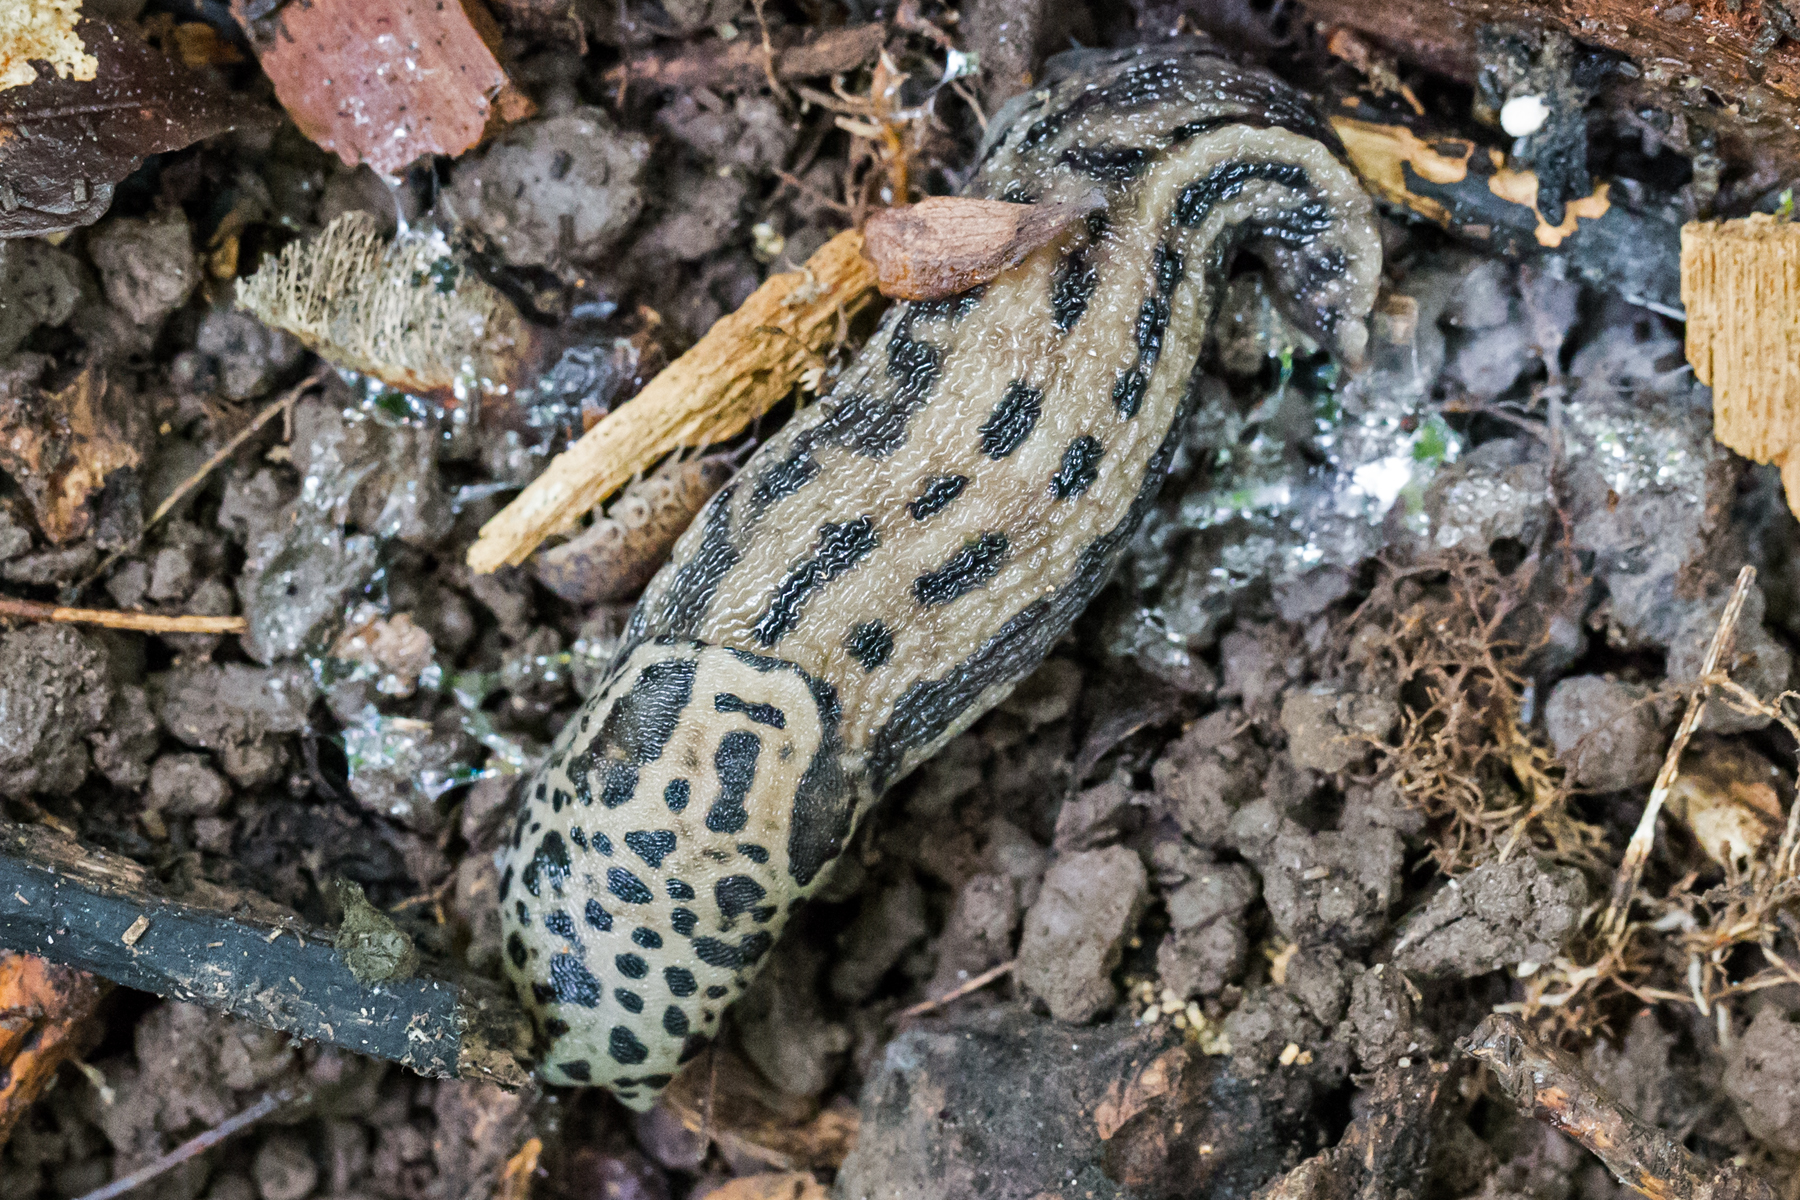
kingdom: Animalia
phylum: Mollusca
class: Gastropoda
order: Stylommatophora
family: Limacidae
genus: Limax
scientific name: Limax maximus
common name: Great grey slug
